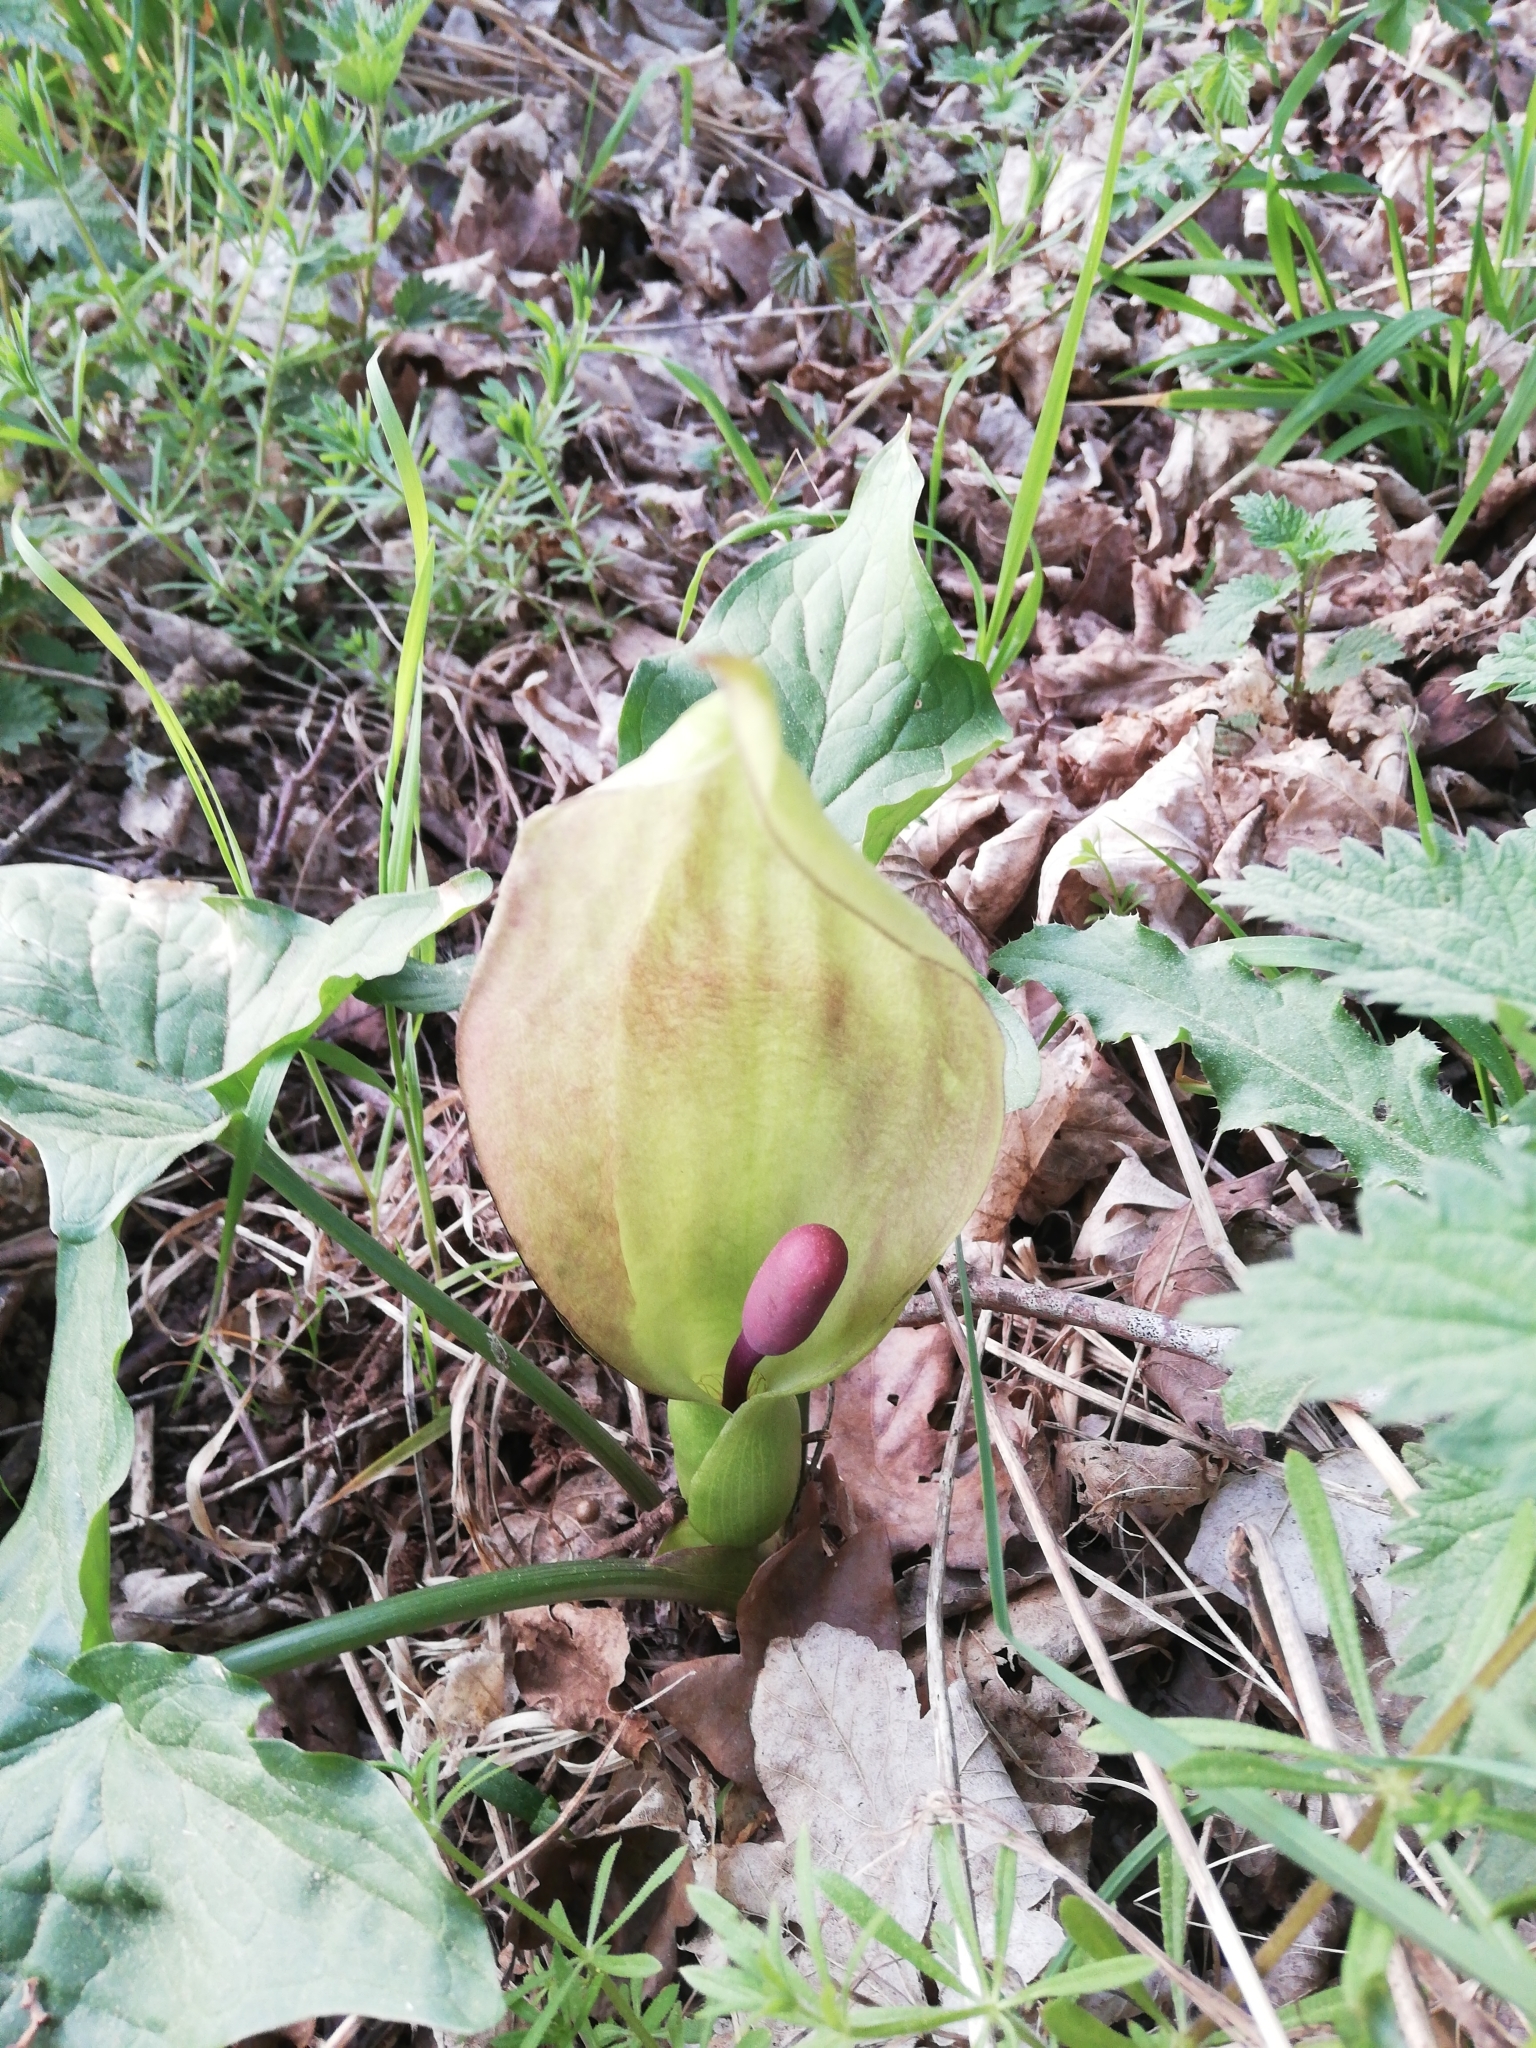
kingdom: Plantae
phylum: Tracheophyta
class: Liliopsida
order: Alismatales
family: Araceae
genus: Arum
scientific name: Arum maculatum
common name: Lords-and-ladies
